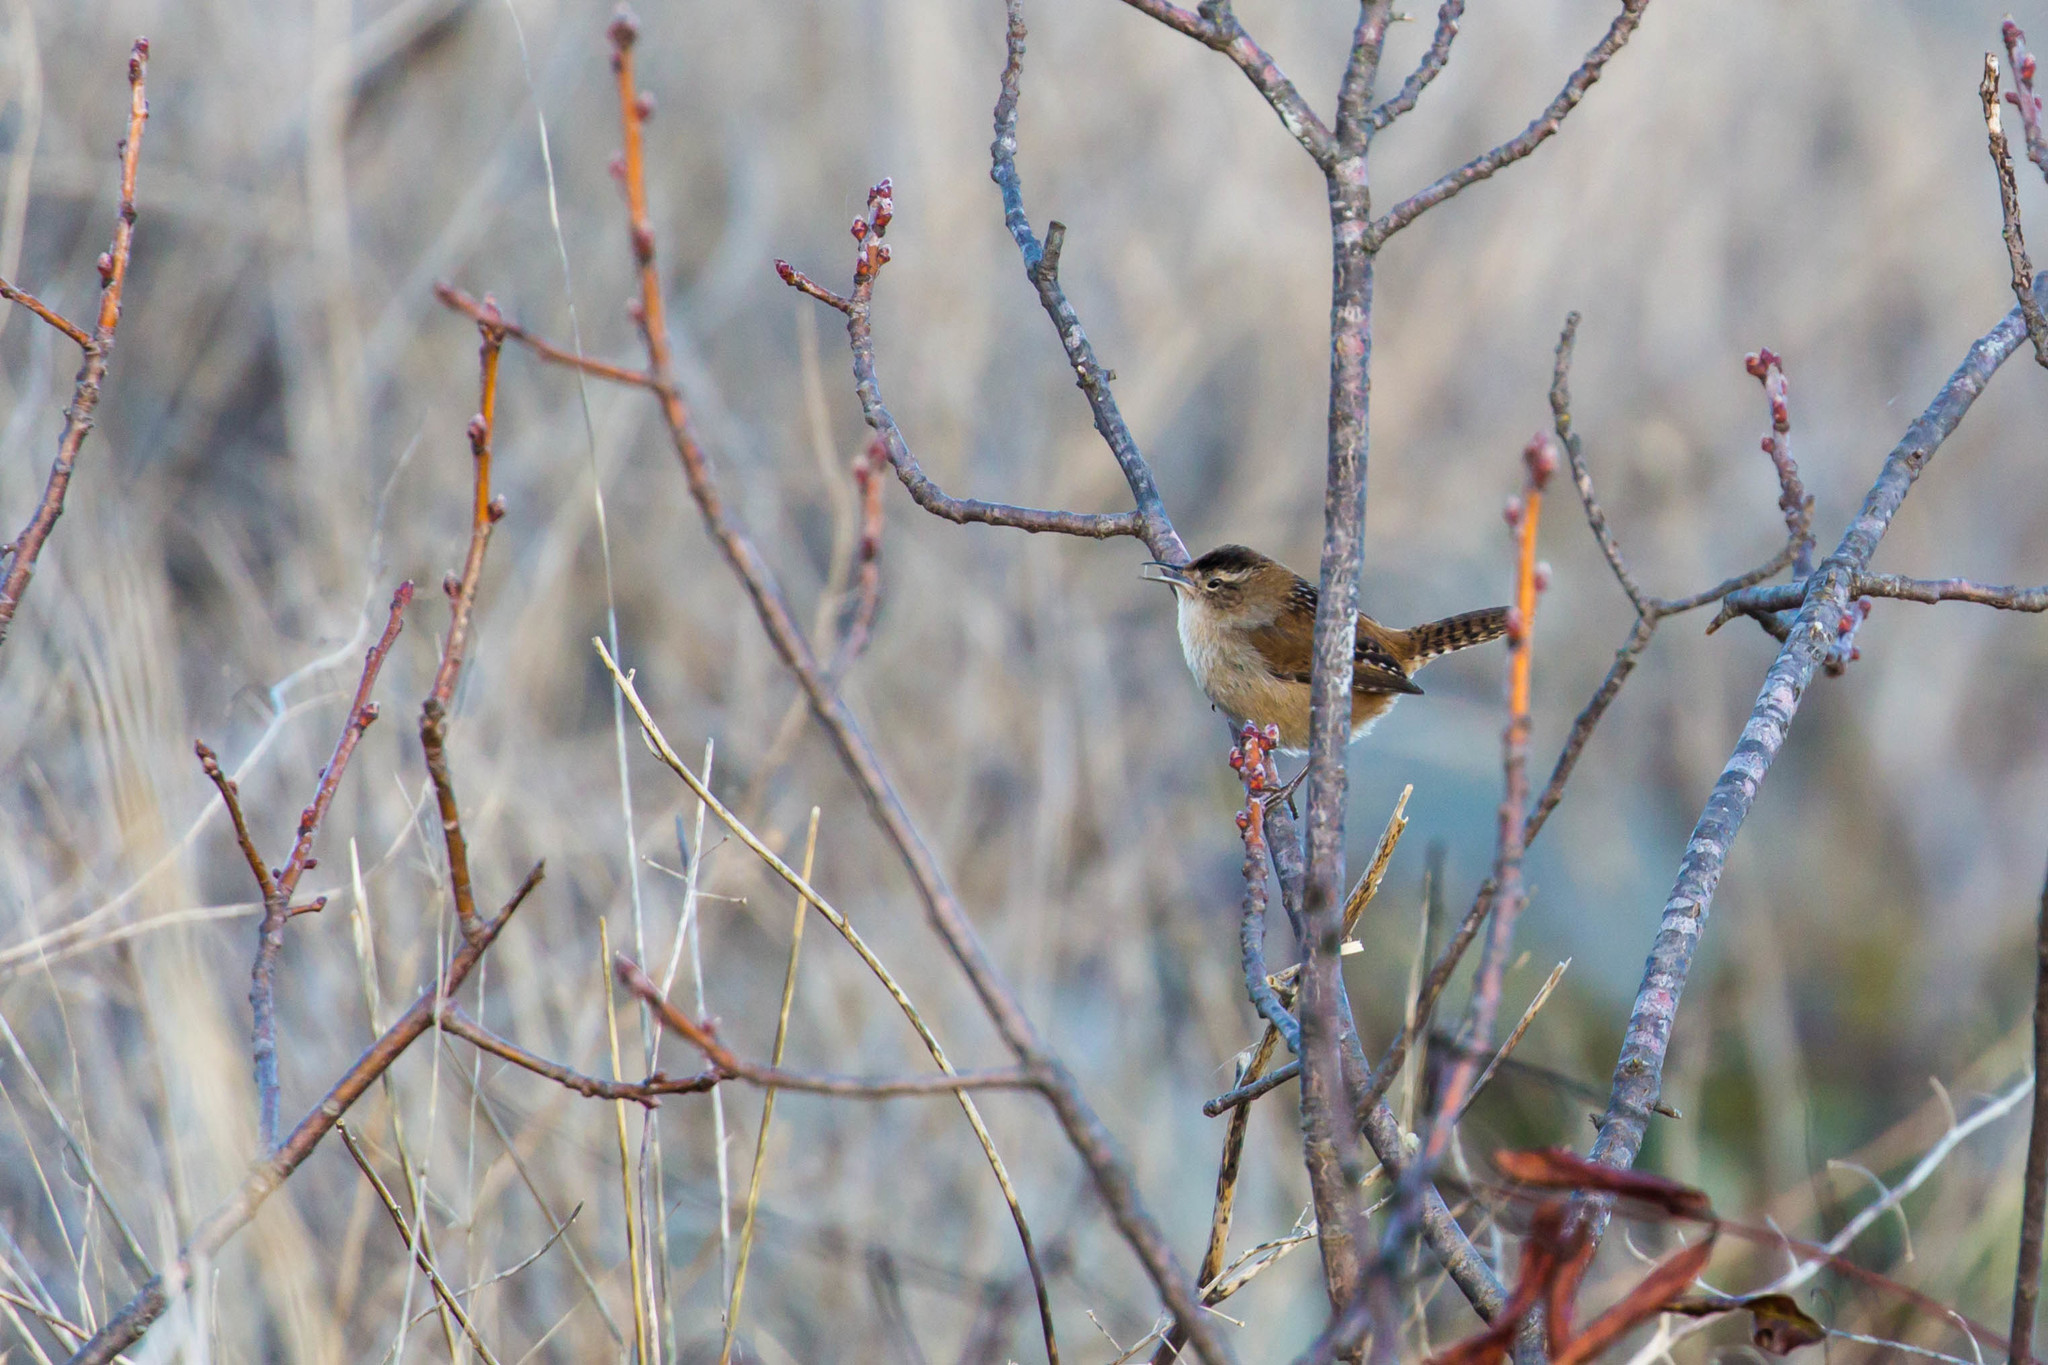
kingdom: Animalia
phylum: Chordata
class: Aves
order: Passeriformes
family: Troglodytidae
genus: Cistothorus
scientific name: Cistothorus palustris
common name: Marsh wren
